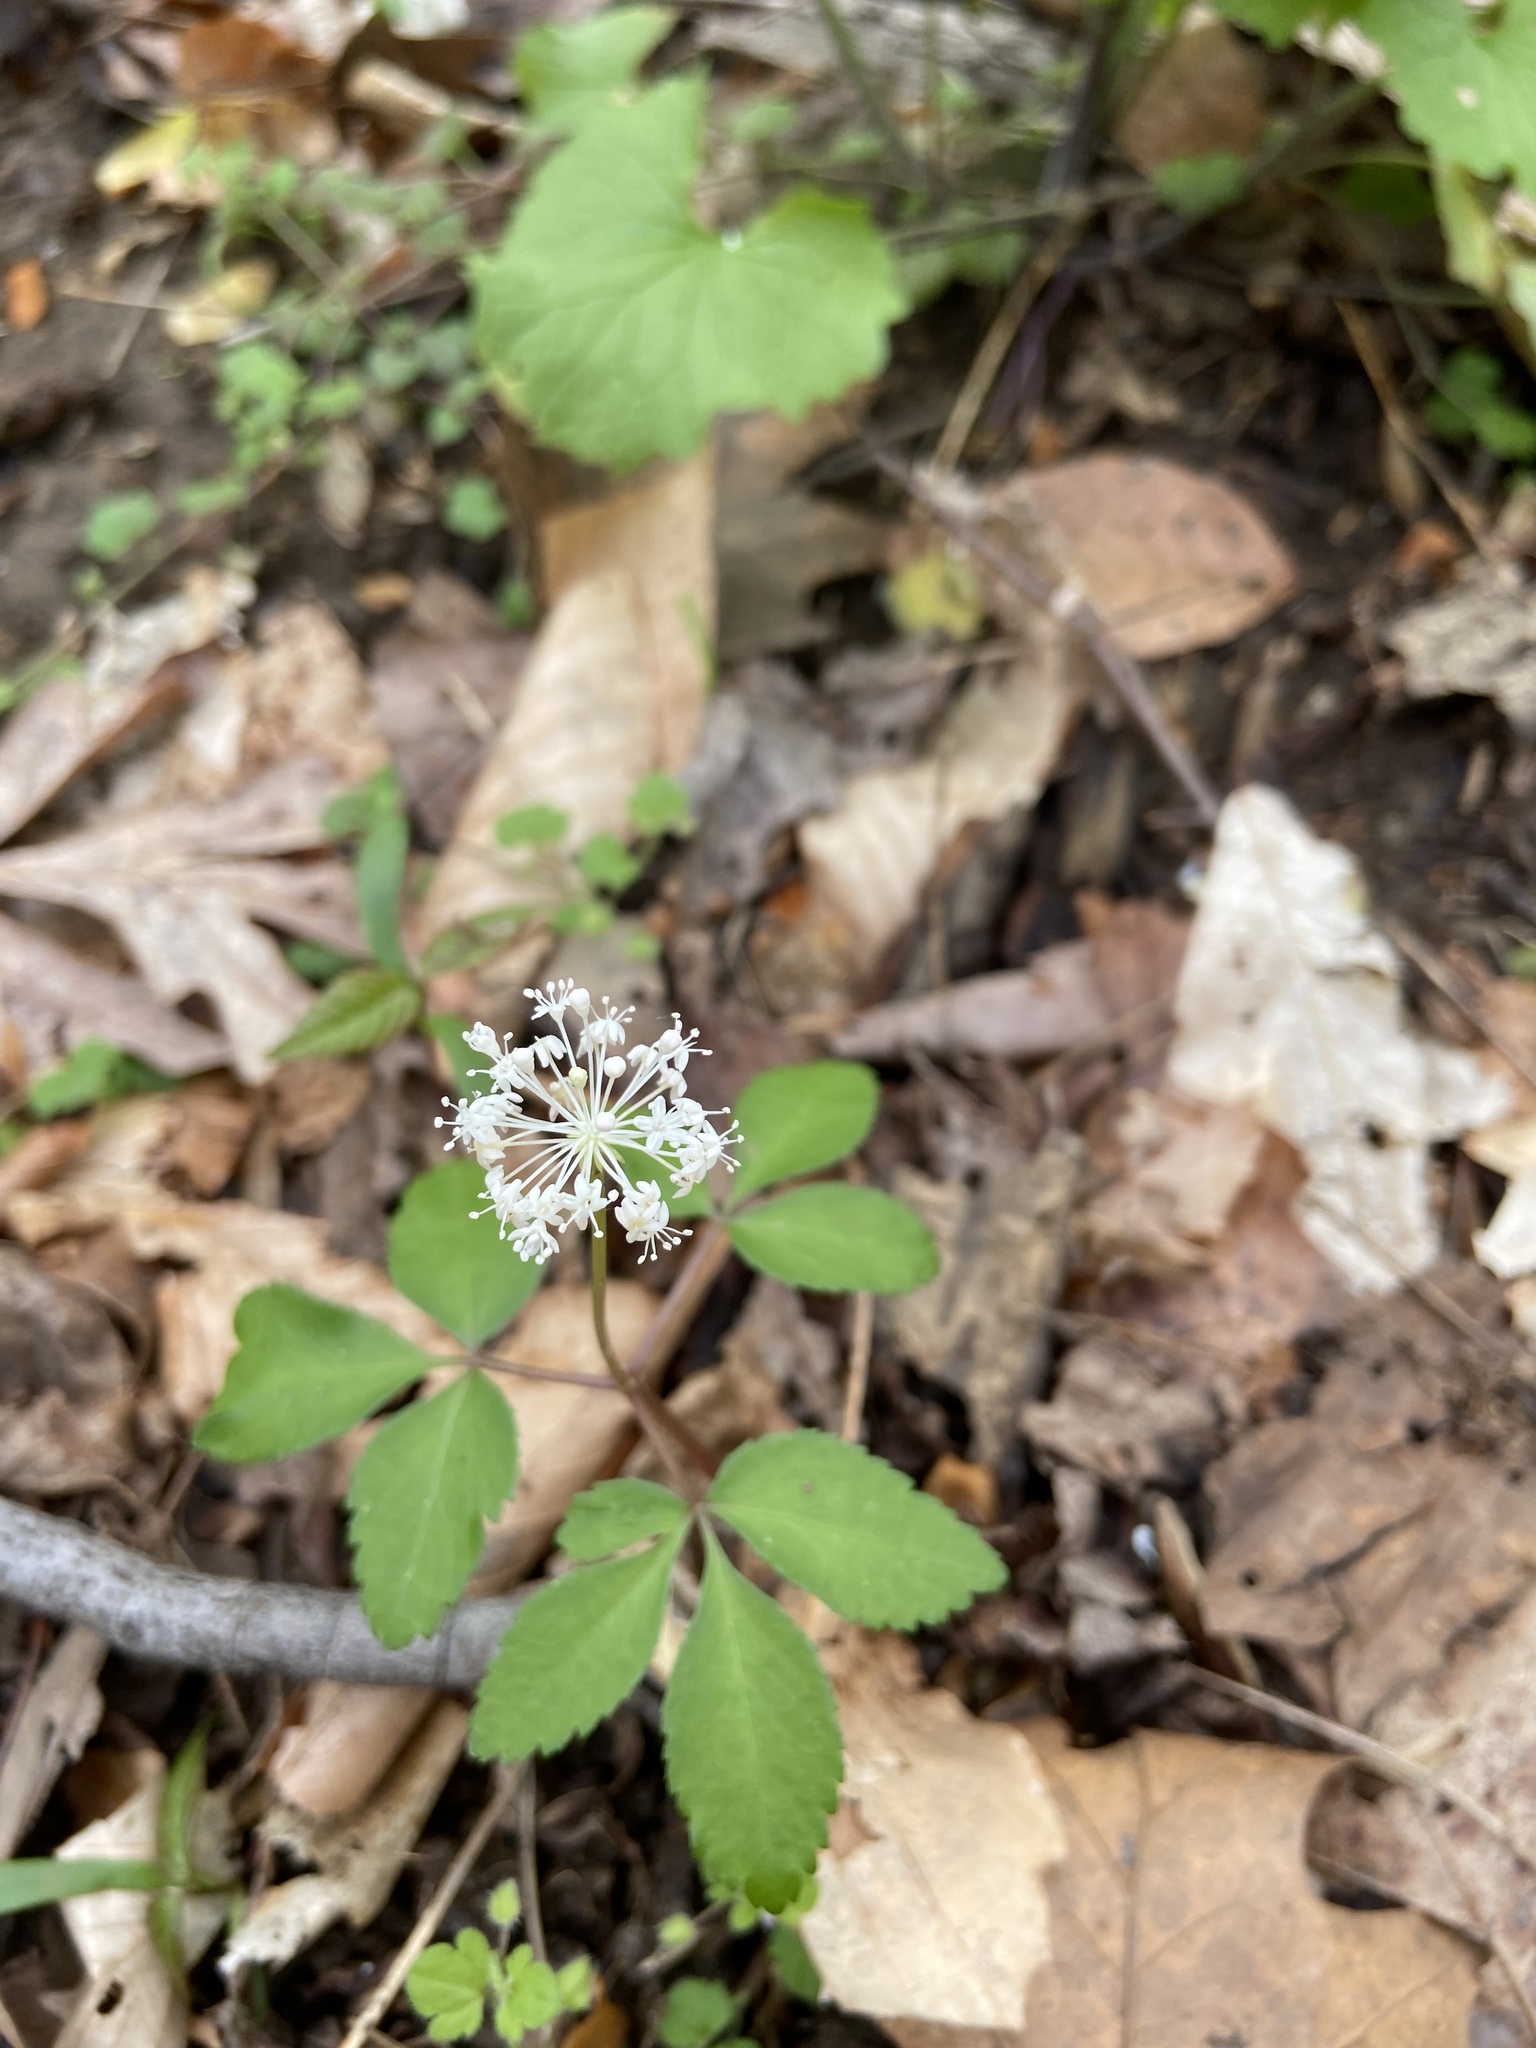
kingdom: Plantae
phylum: Tracheophyta
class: Magnoliopsida
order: Apiales
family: Araliaceae
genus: Panax
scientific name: Panax trifolius
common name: Dwarf ginseng
